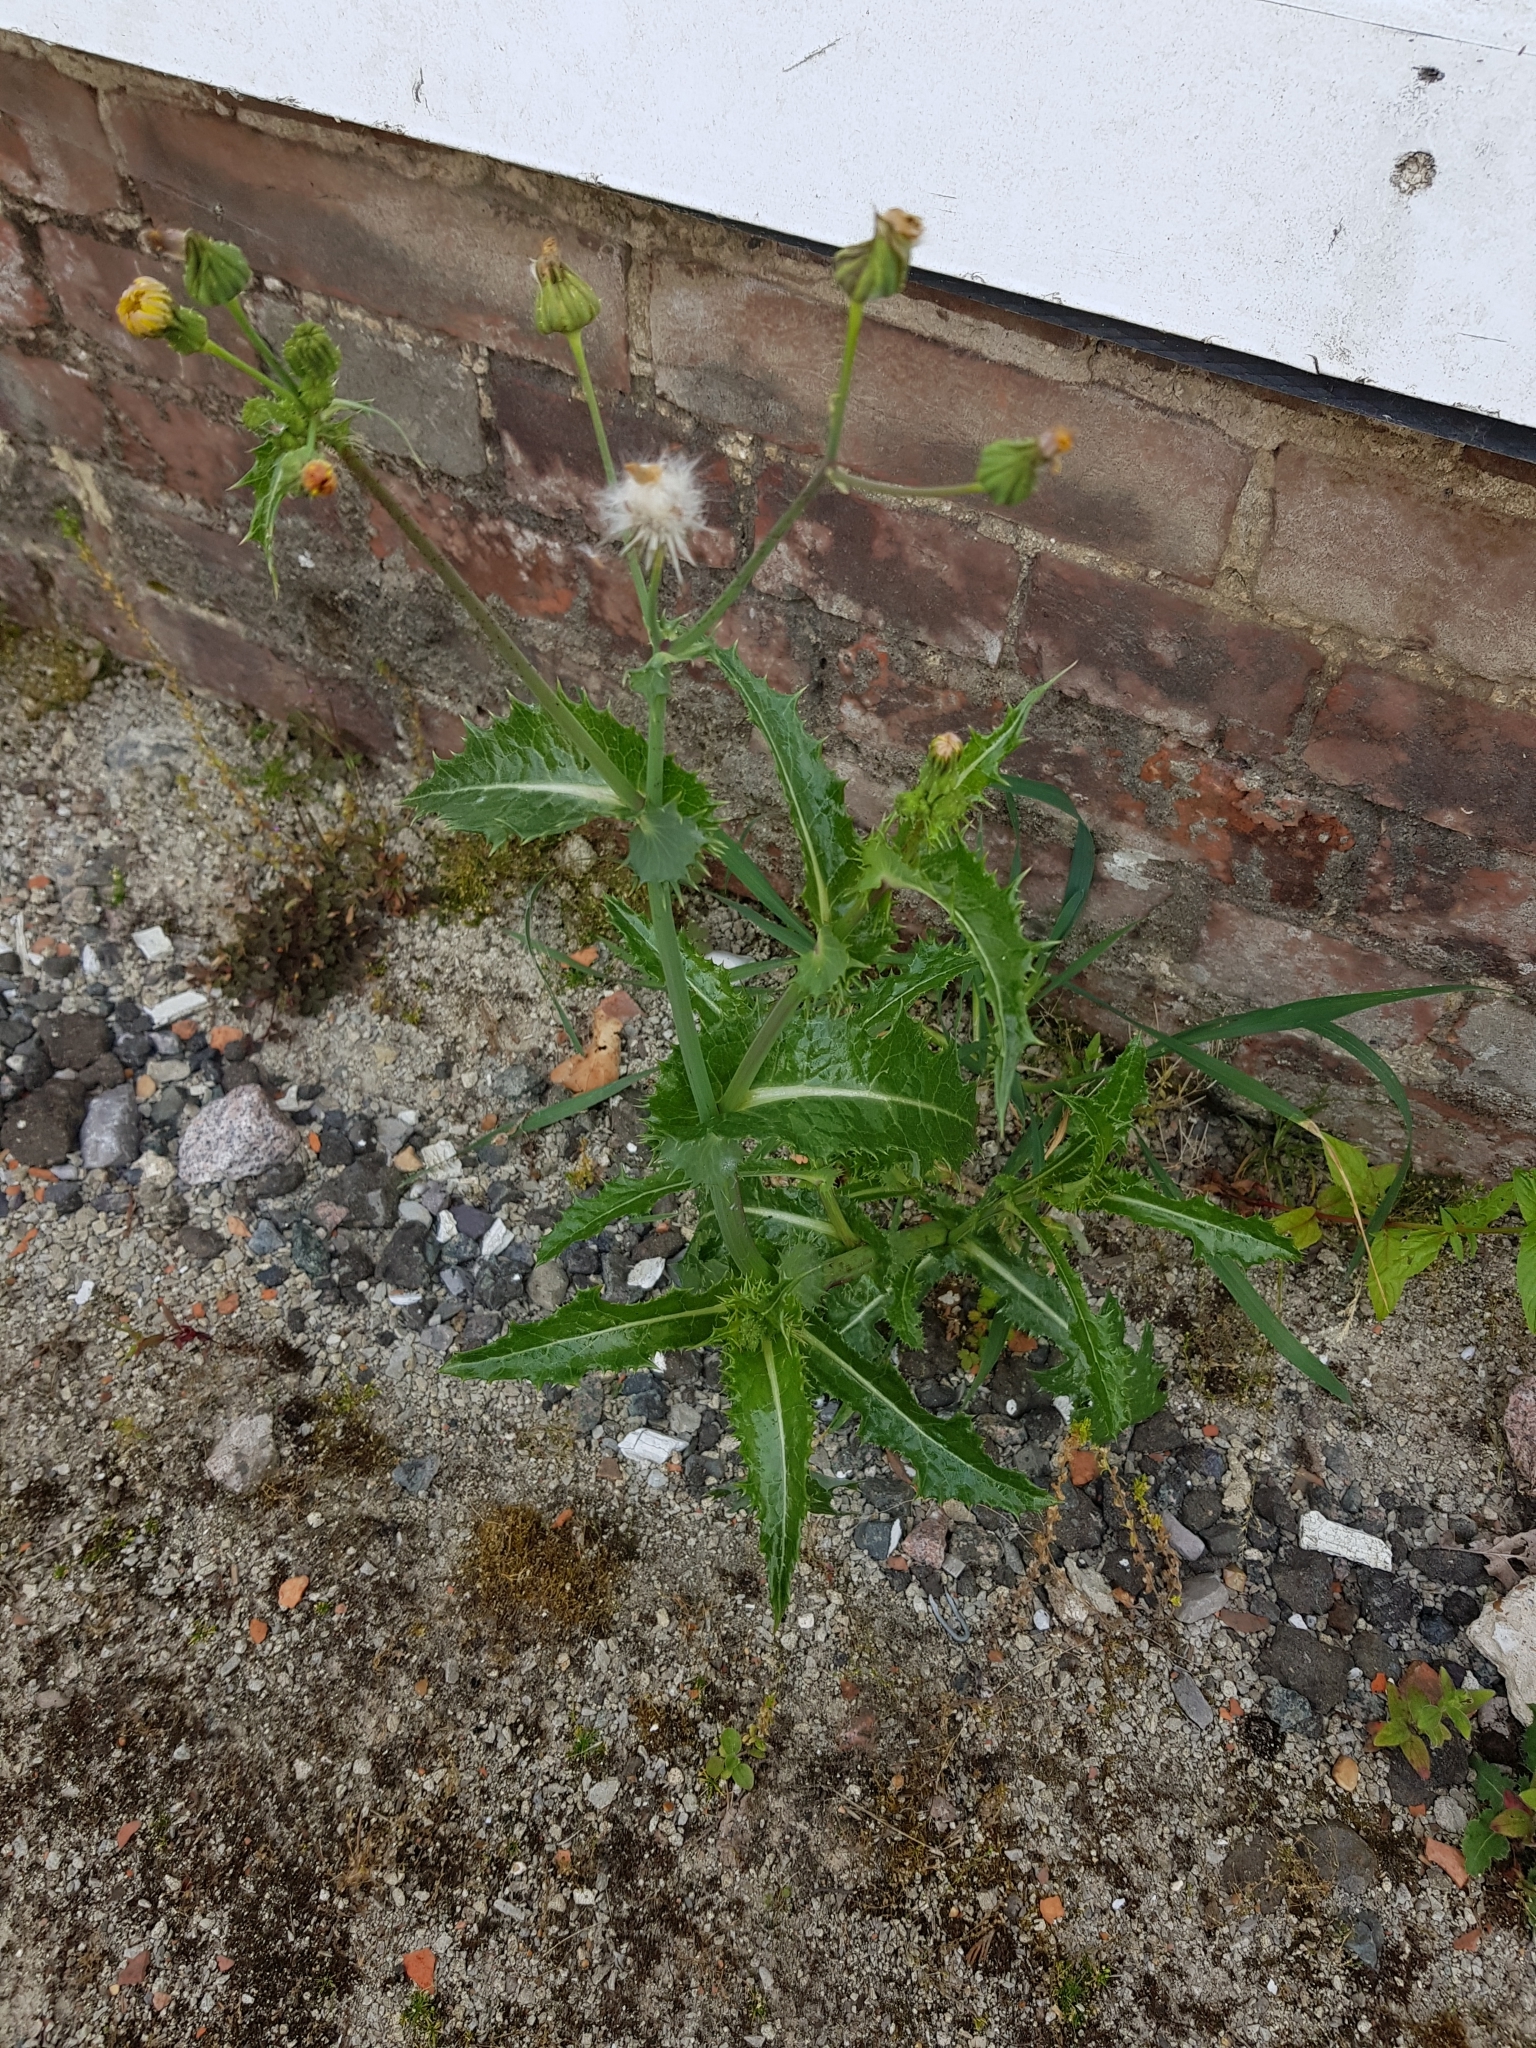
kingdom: Plantae
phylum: Tracheophyta
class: Magnoliopsida
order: Asterales
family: Asteraceae
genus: Sonchus
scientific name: Sonchus asper
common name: Prickly sow-thistle
